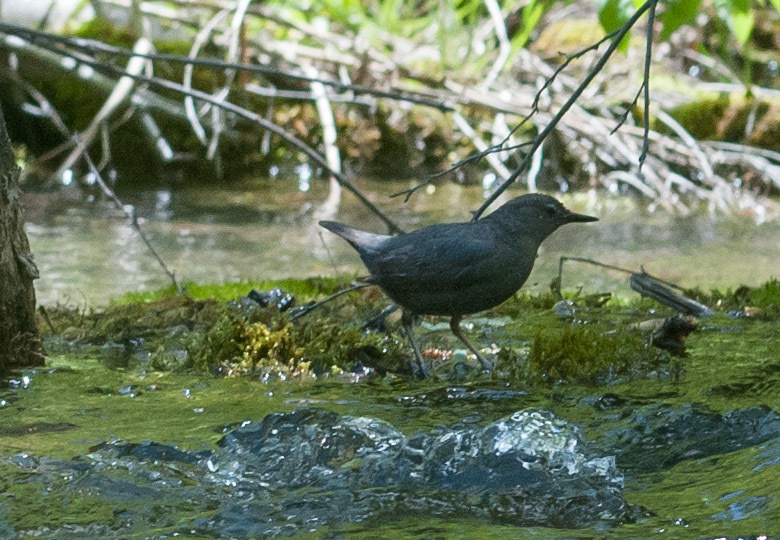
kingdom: Animalia
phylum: Chordata
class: Aves
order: Passeriformes
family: Cinclidae
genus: Cinclus
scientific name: Cinclus mexicanus
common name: American dipper
